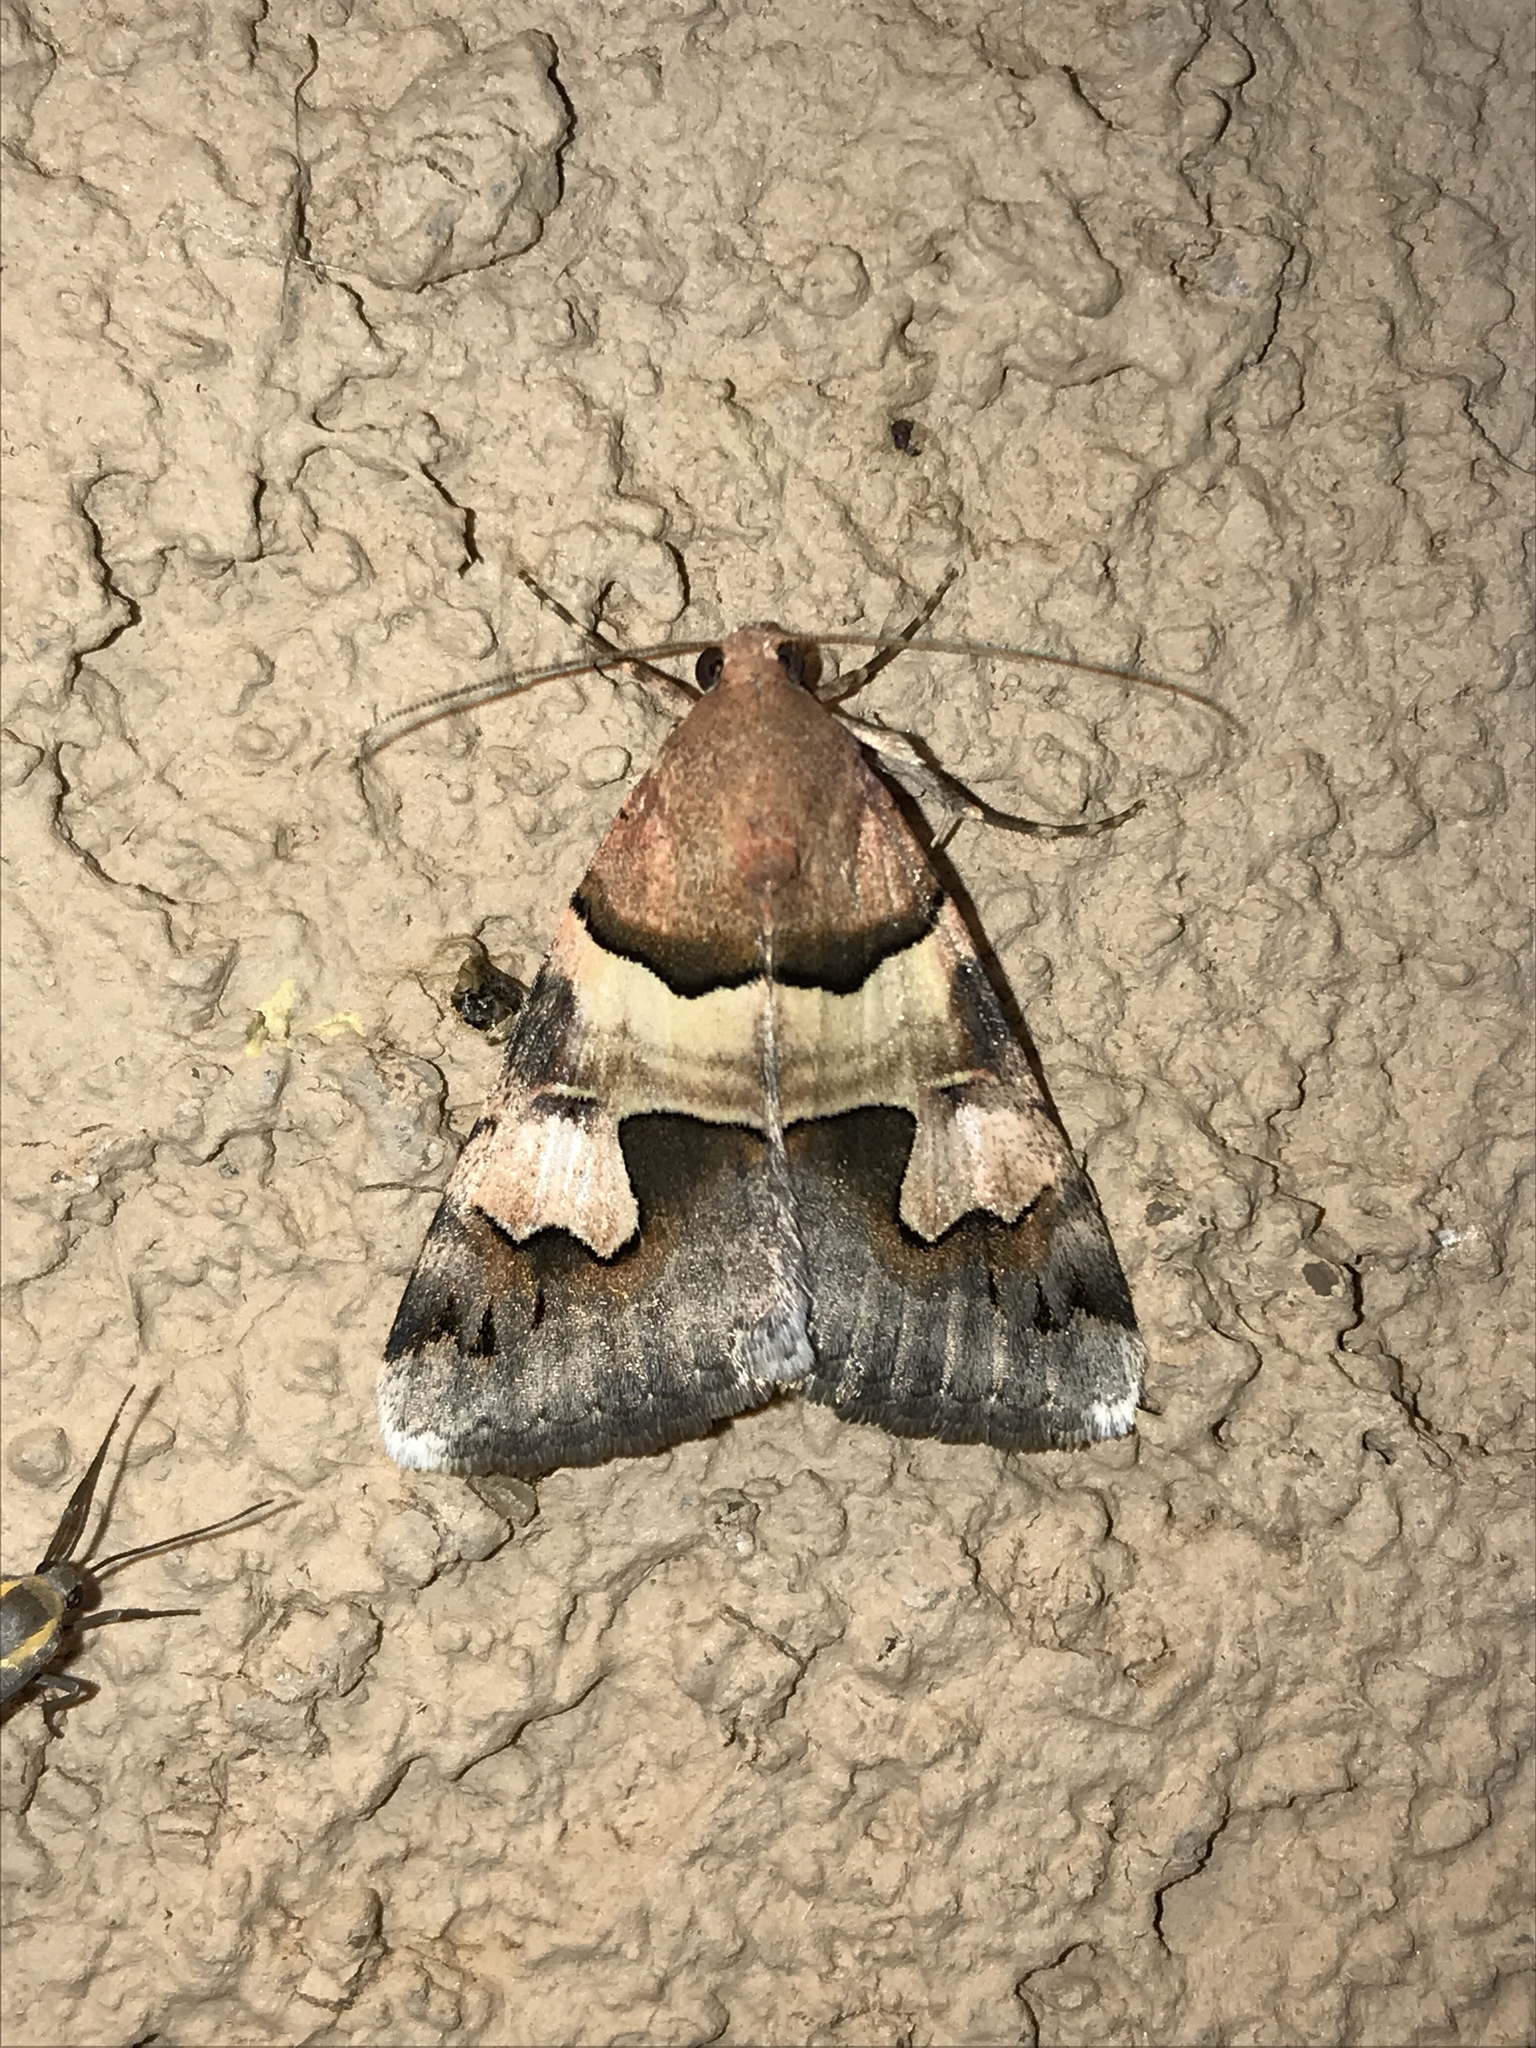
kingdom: Animalia
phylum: Arthropoda
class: Insecta
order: Lepidoptera
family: Erebidae
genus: Drasteria
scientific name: Drasteria pallescens
